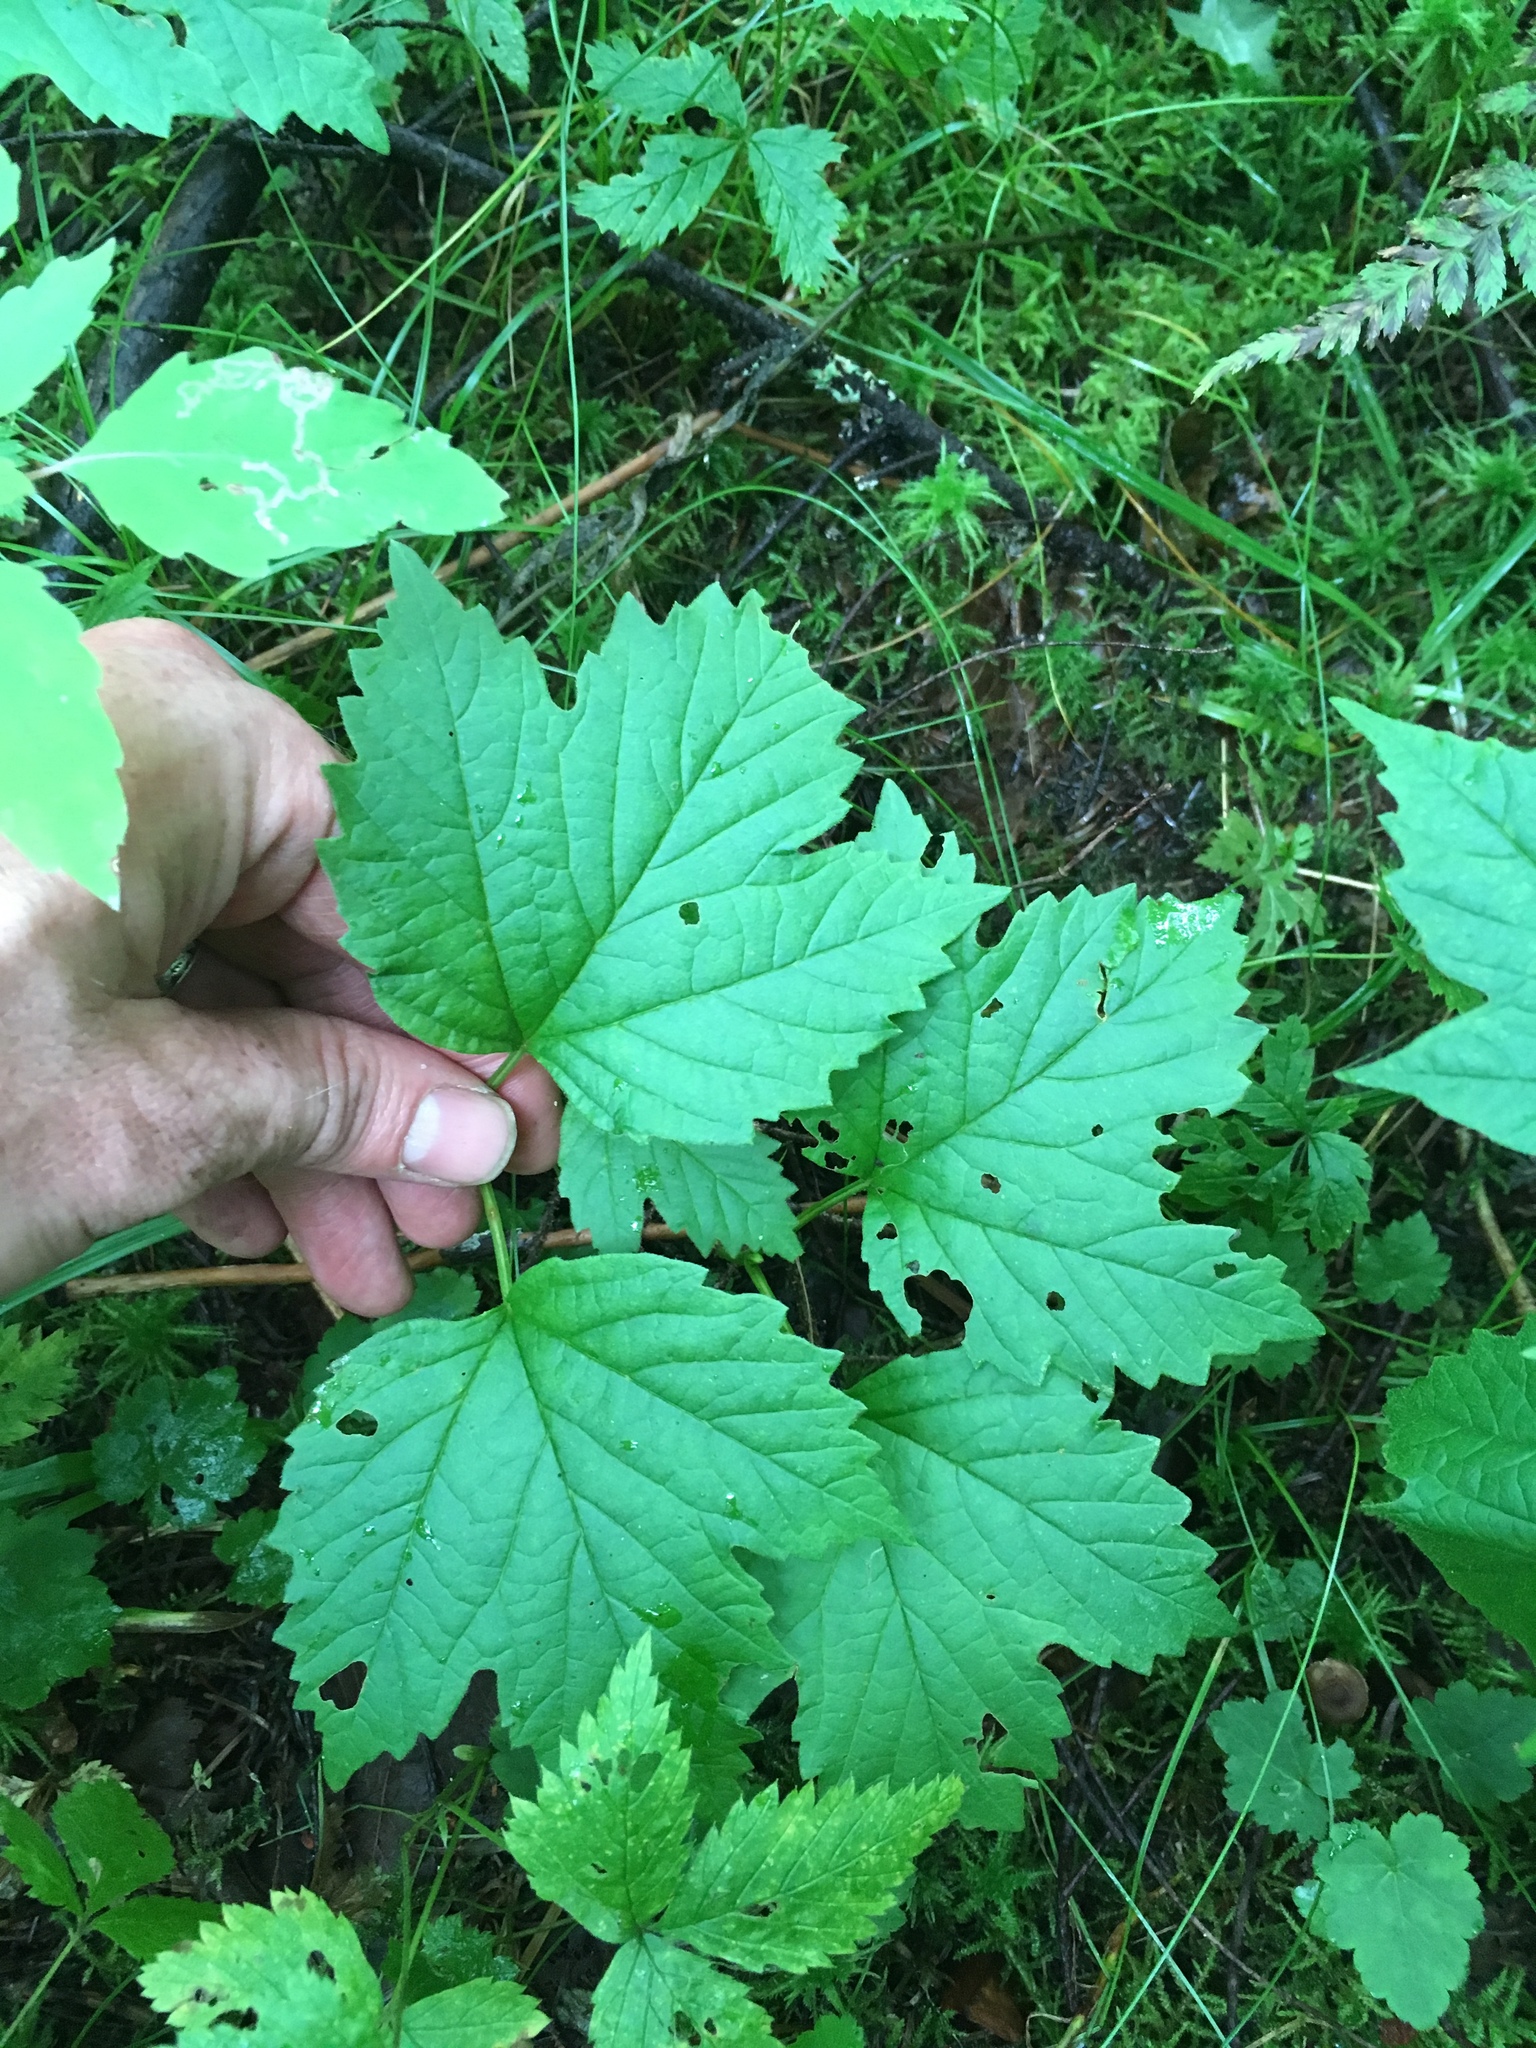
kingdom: Plantae
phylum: Tracheophyta
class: Magnoliopsida
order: Dipsacales
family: Viburnaceae
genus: Viburnum
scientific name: Viburnum opulus
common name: Guelder-rose
